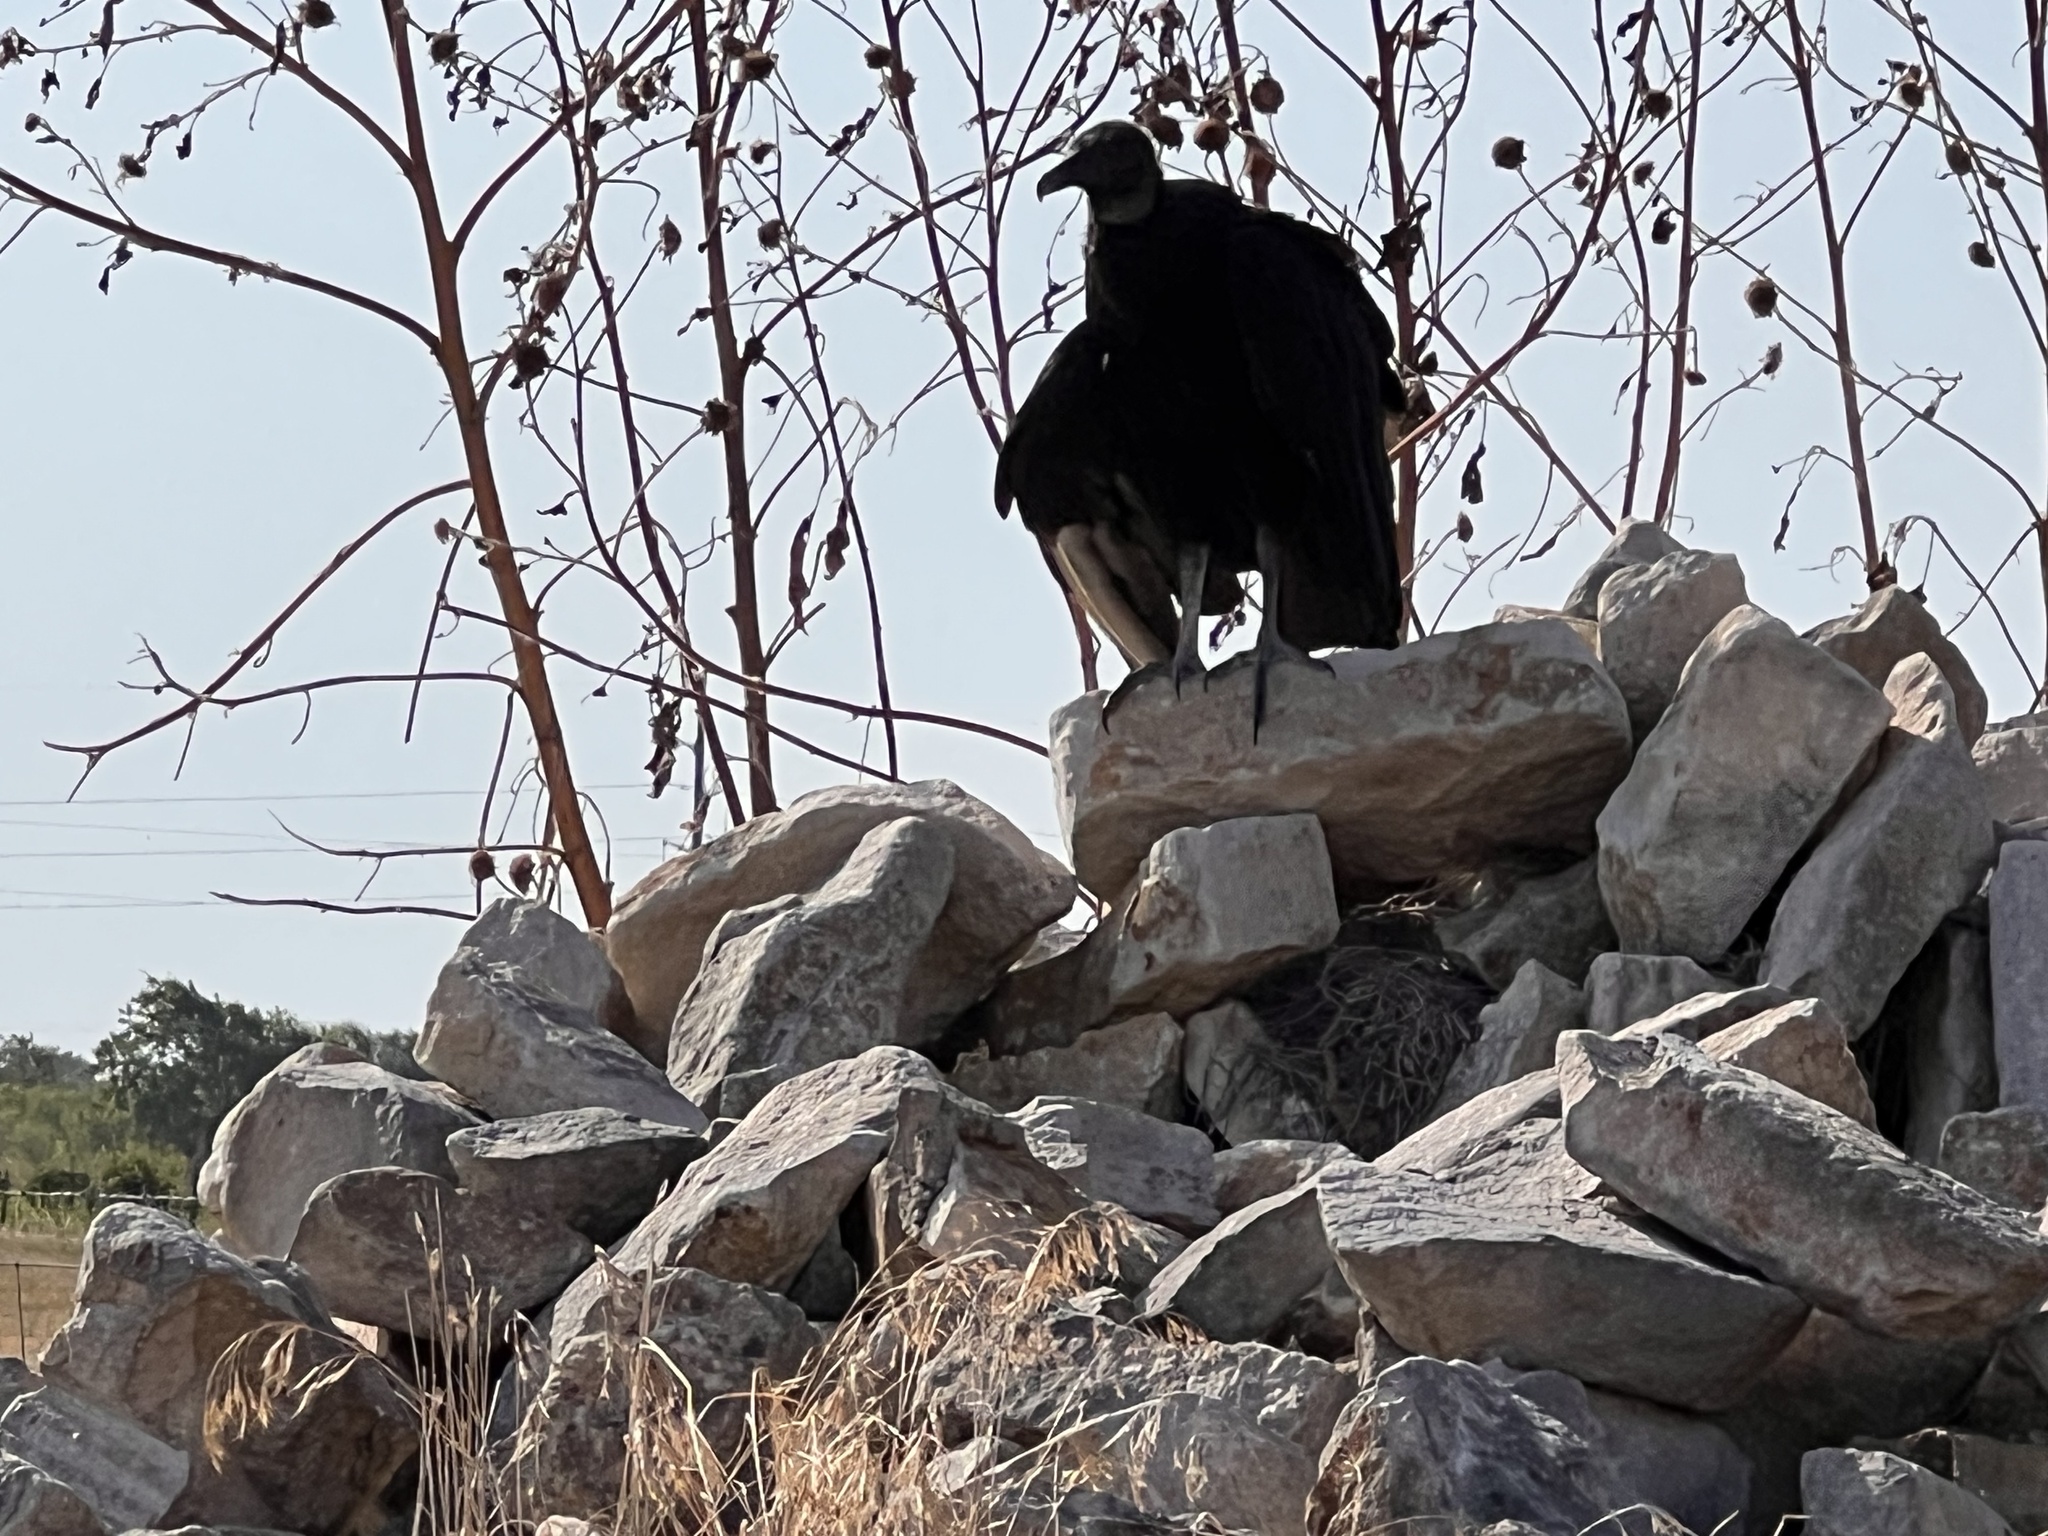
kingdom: Animalia
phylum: Chordata
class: Aves
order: Accipitriformes
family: Cathartidae
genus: Coragyps
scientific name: Coragyps atratus
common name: Black vulture
